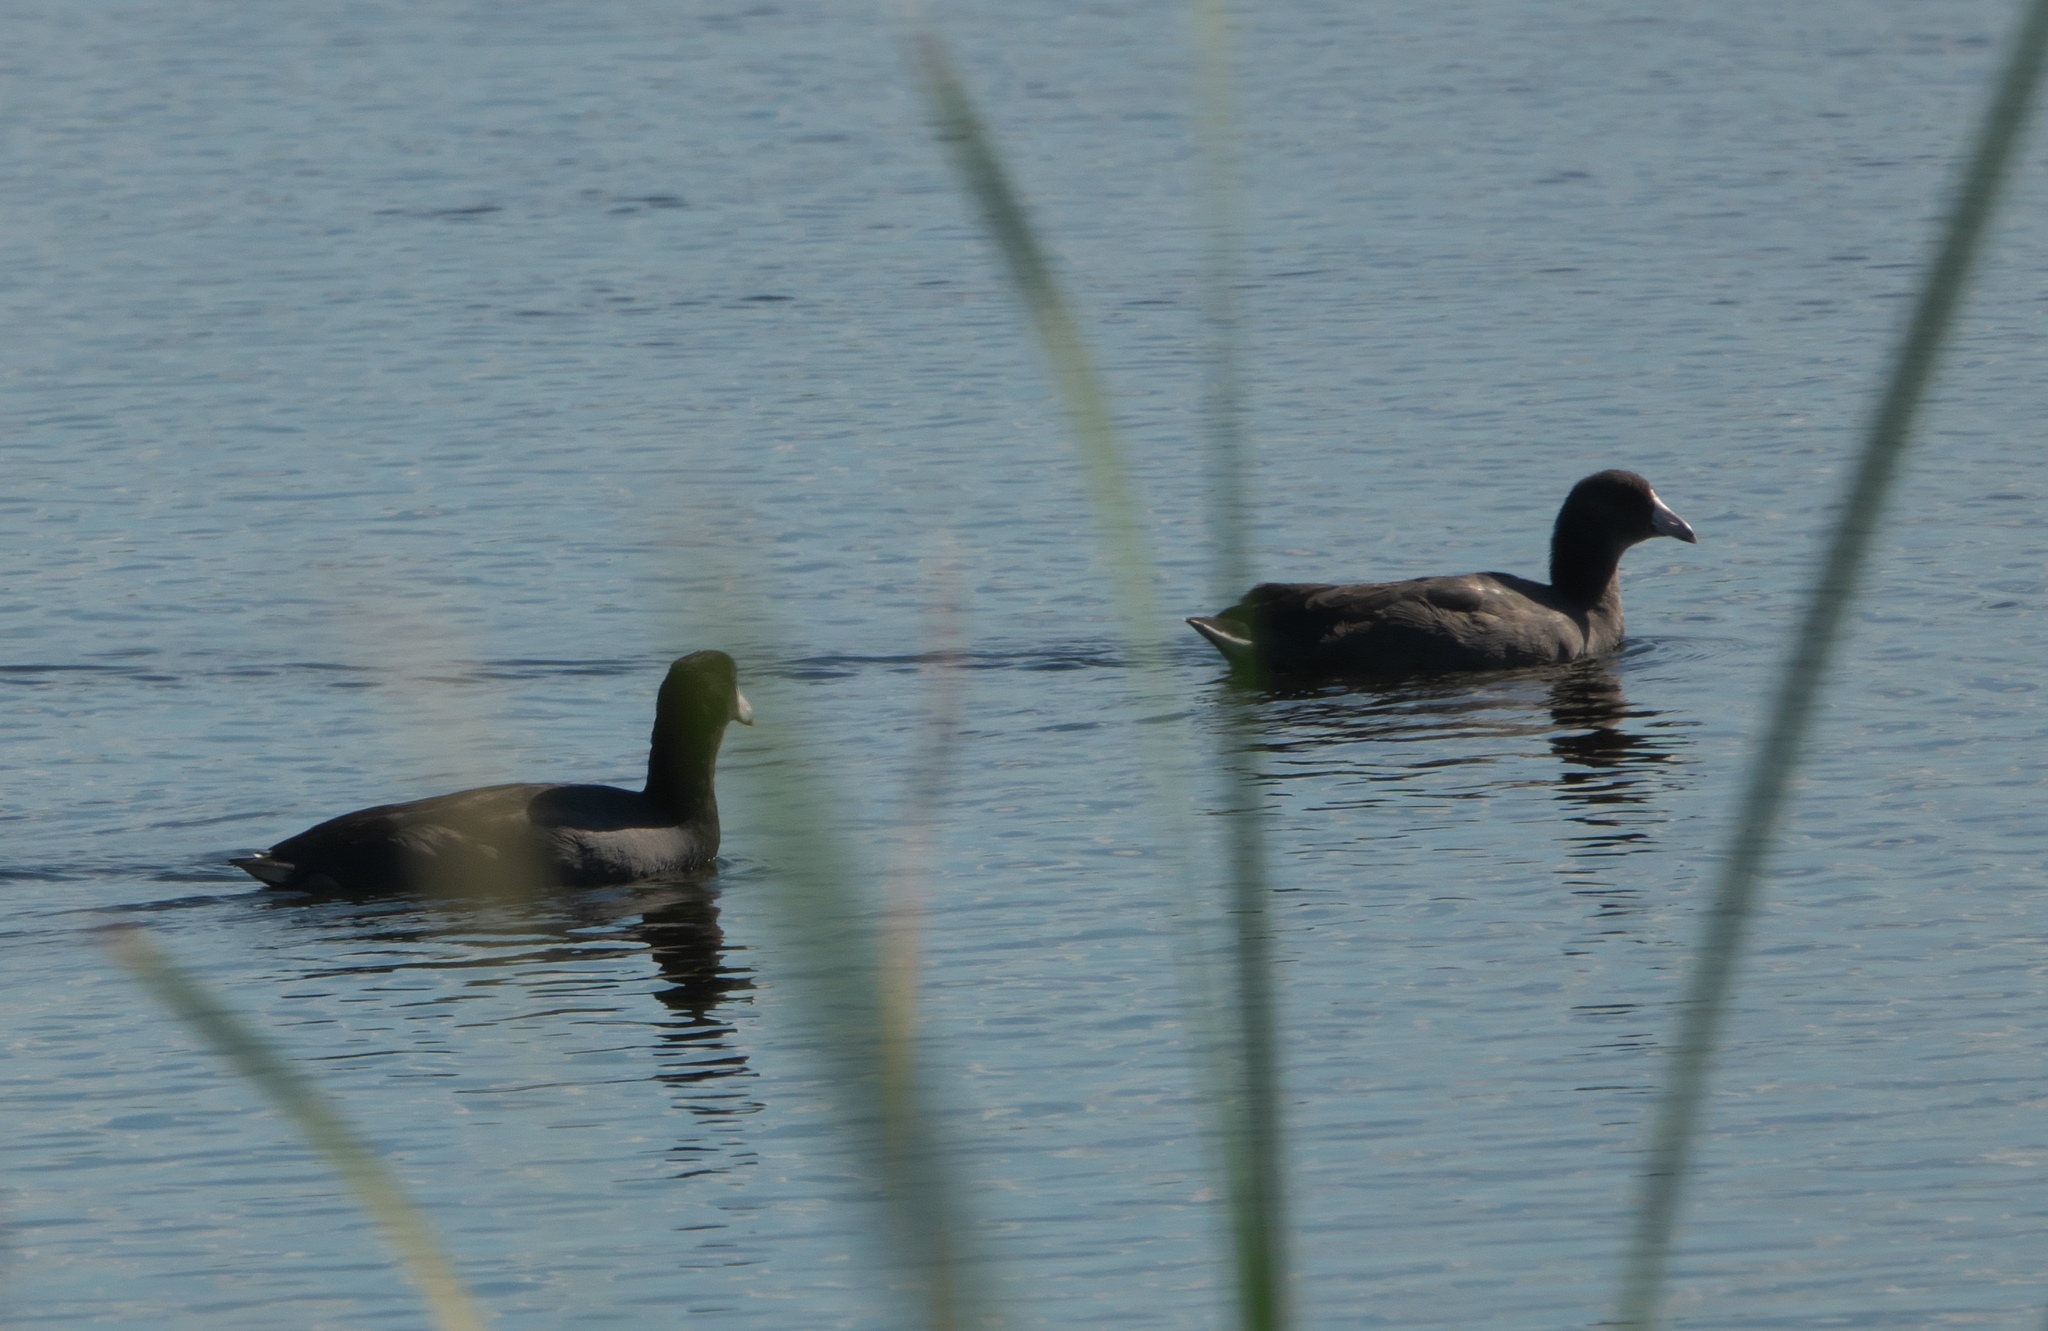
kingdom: Animalia
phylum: Chordata
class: Aves
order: Gruiformes
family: Rallidae
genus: Fulica
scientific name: Fulica americana
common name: American coot
